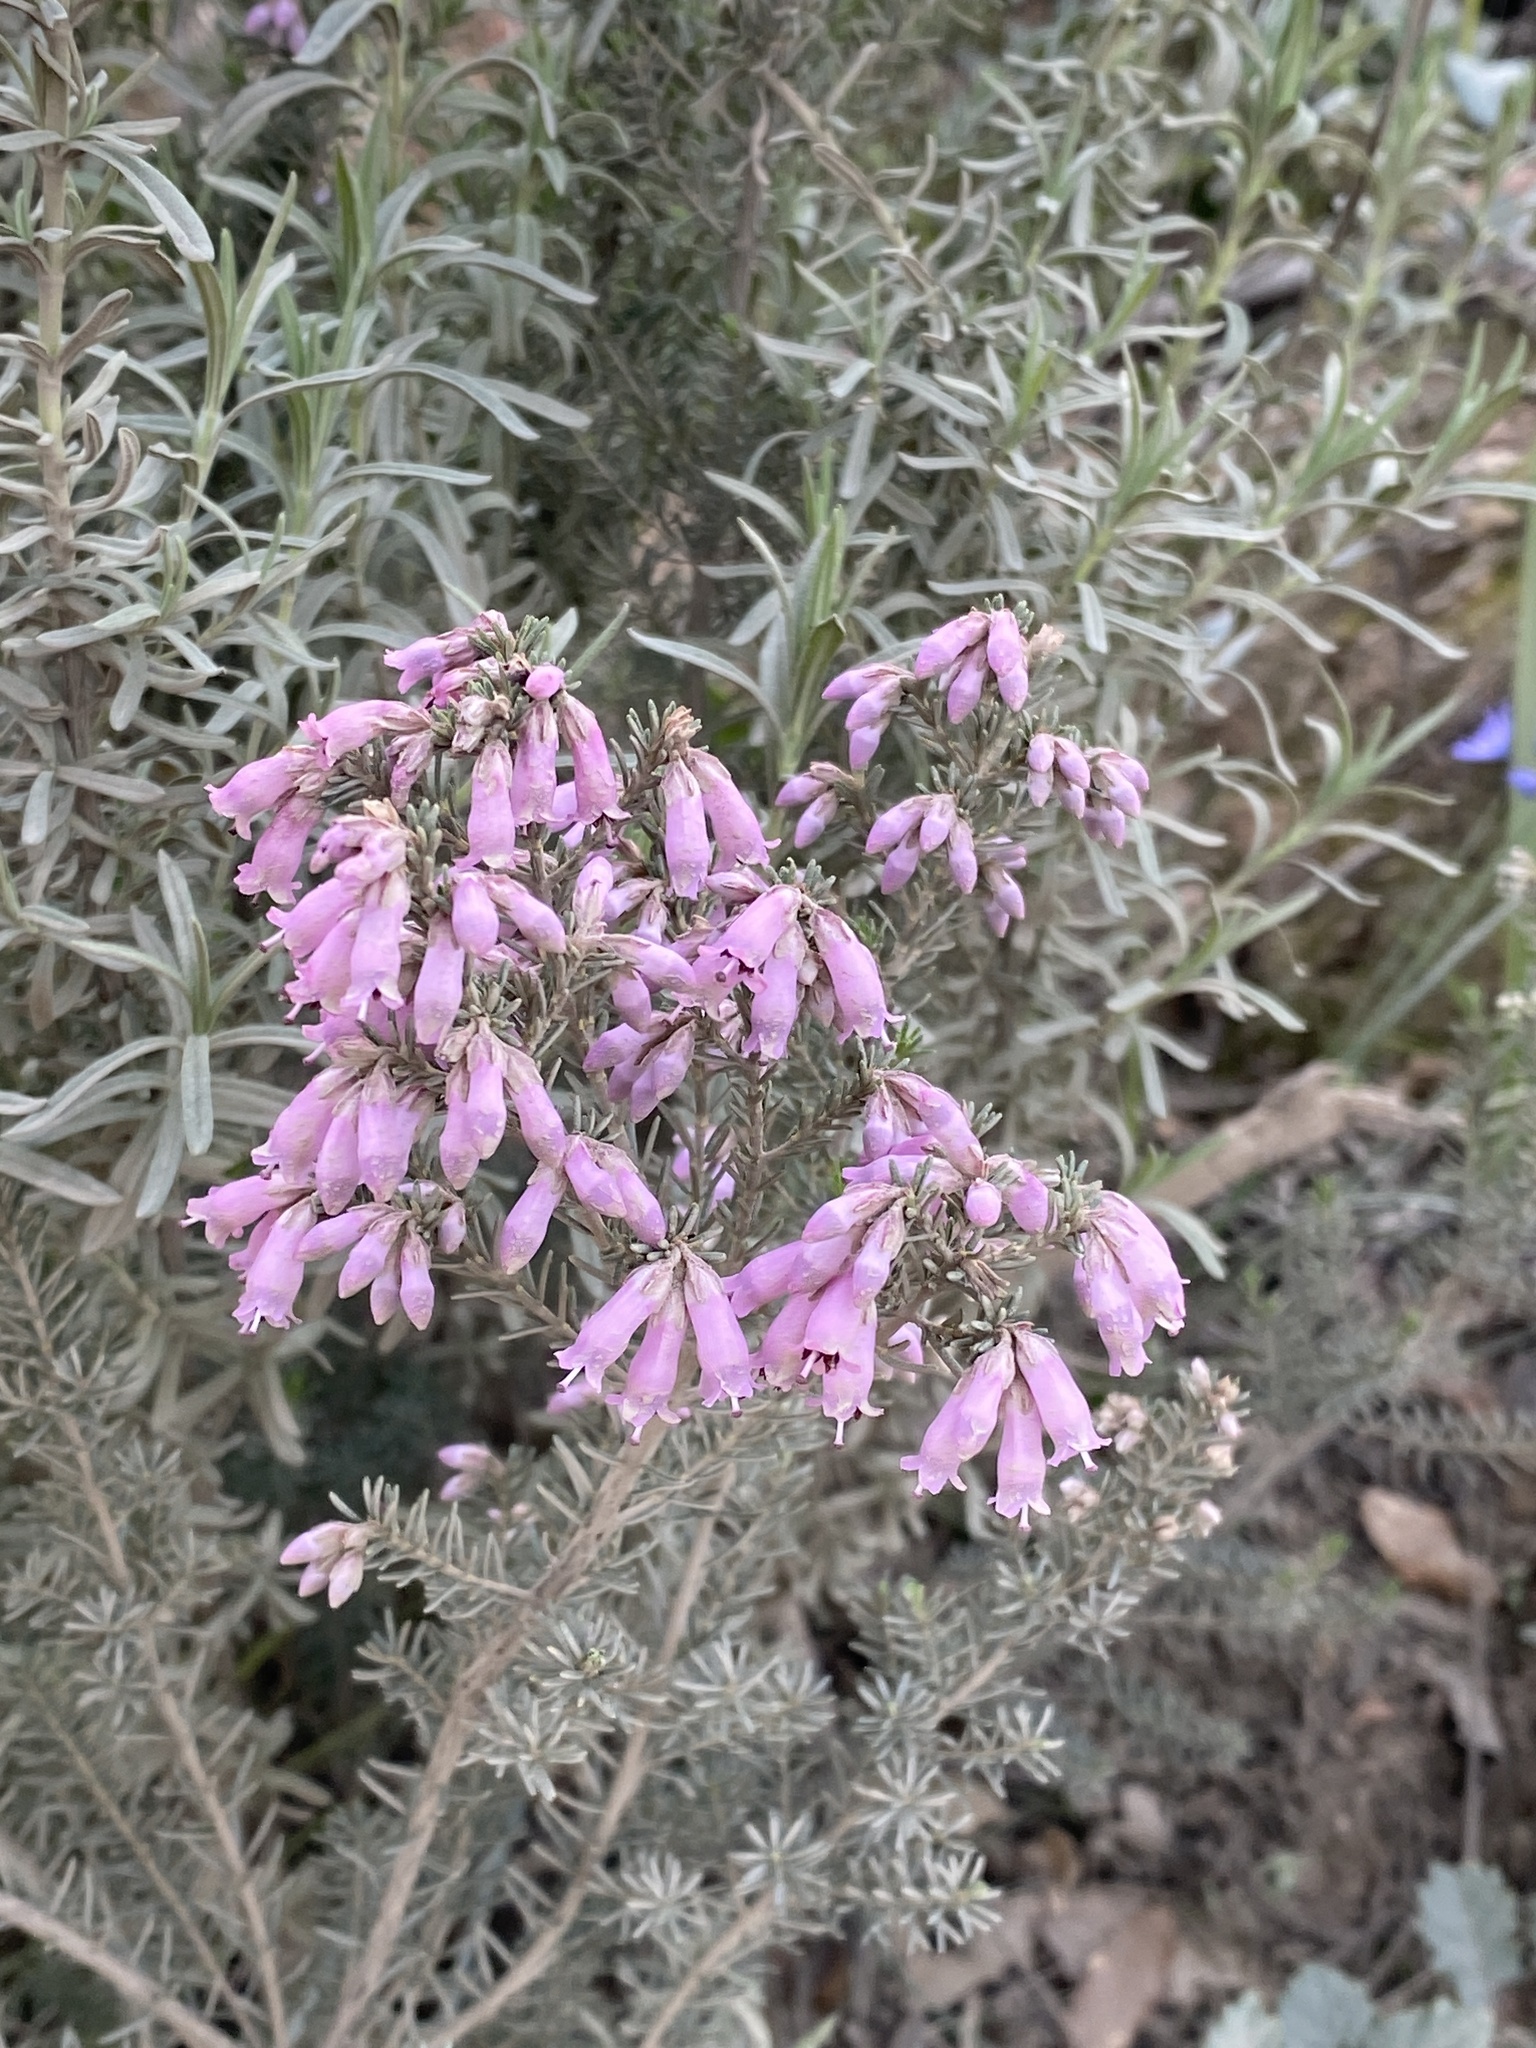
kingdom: Plantae
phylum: Tracheophyta
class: Magnoliopsida
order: Ericales
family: Ericaceae
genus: Erica
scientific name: Erica australis
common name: Spanish heath
